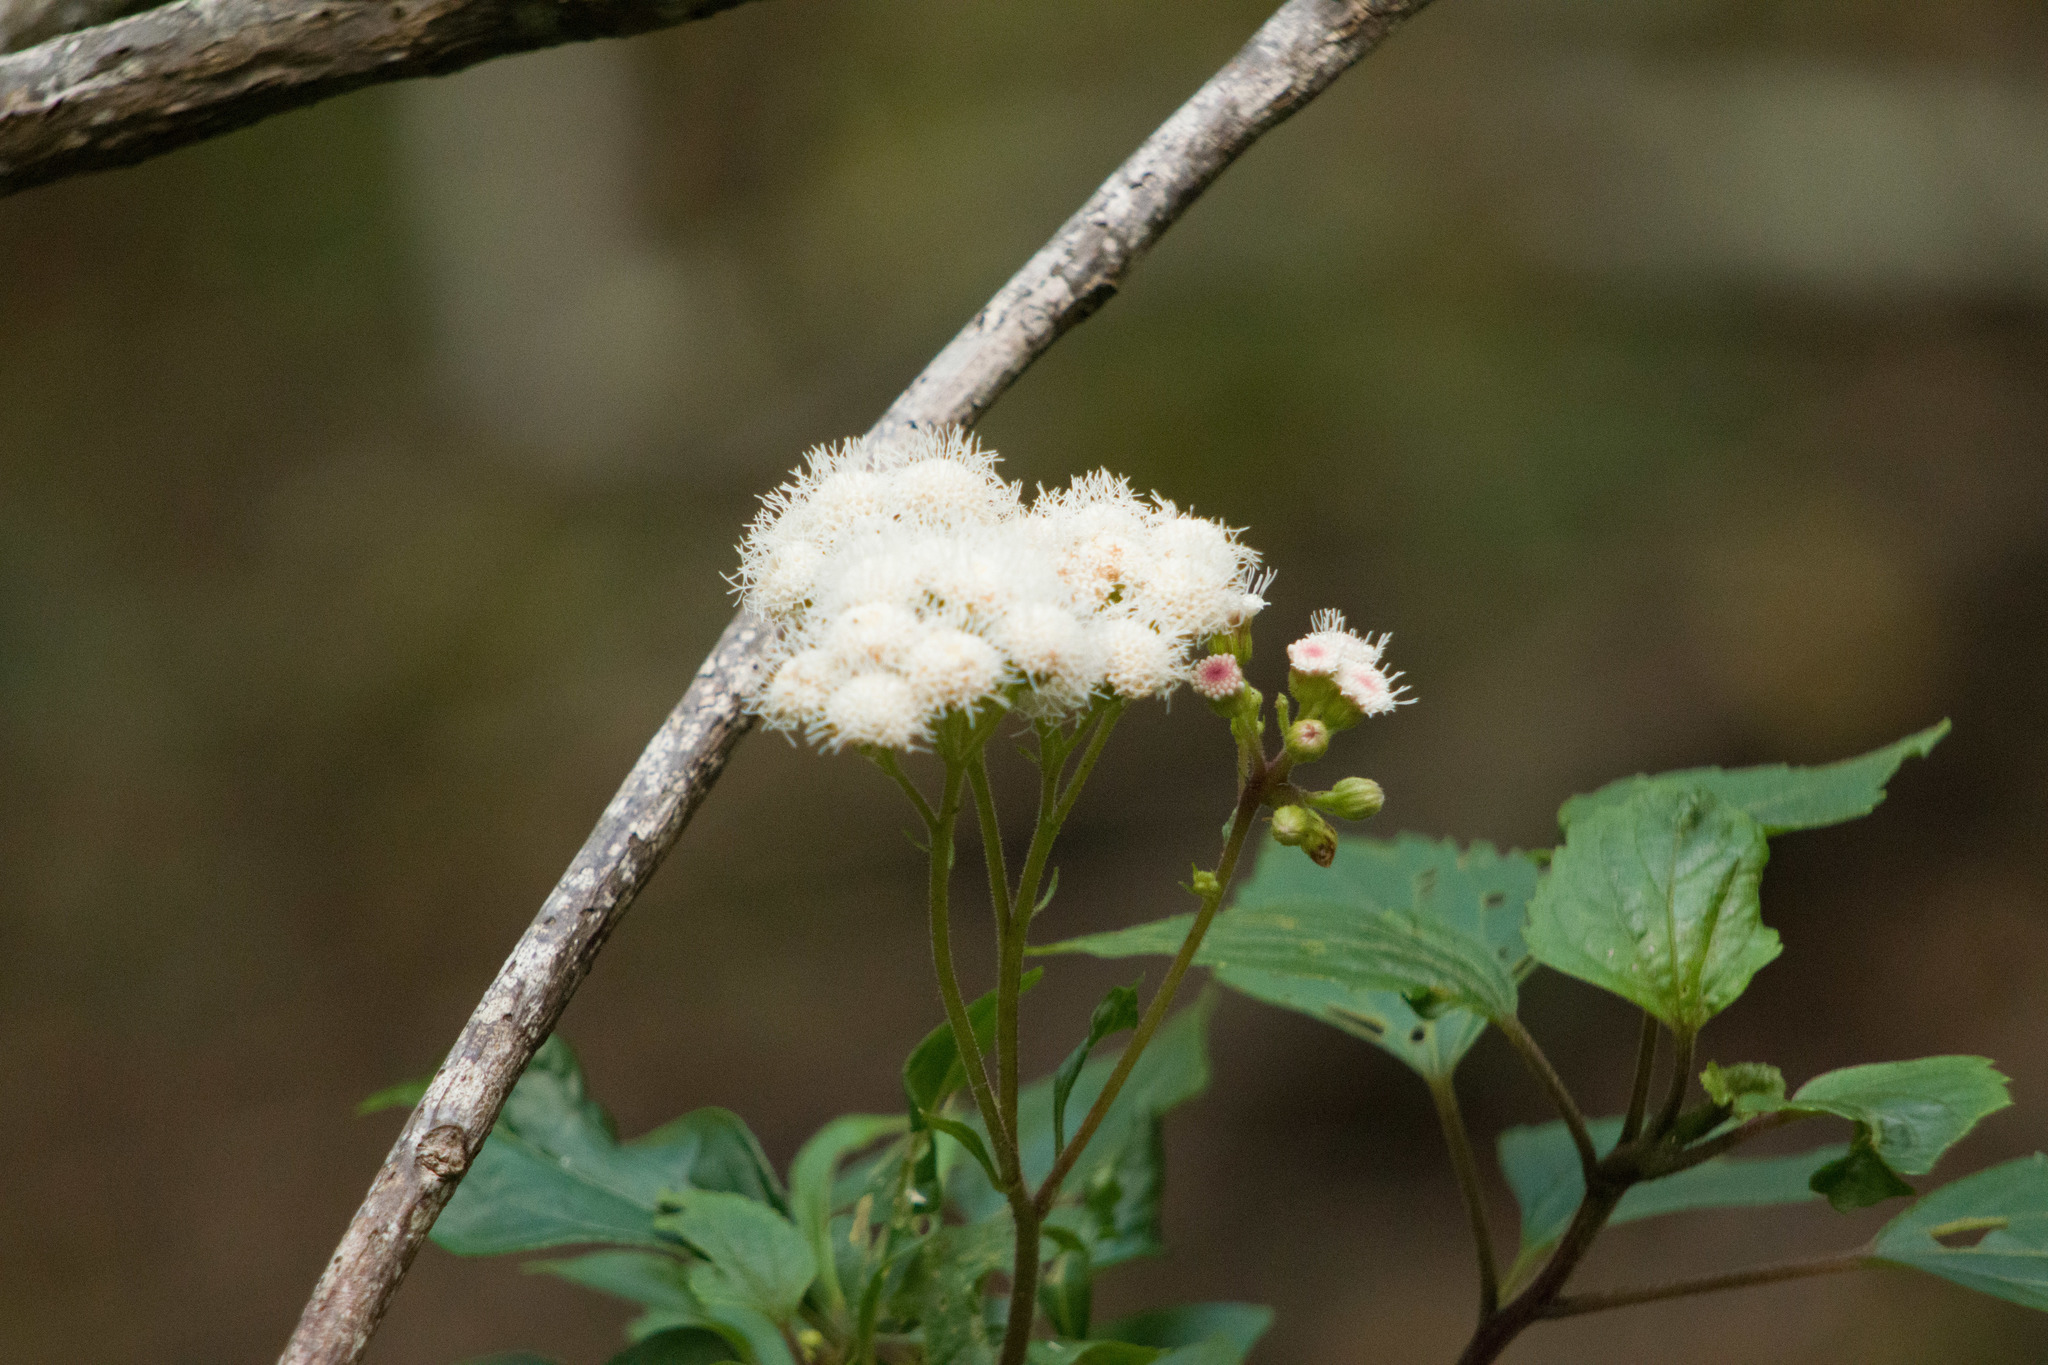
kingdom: Plantae
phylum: Tracheophyta
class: Magnoliopsida
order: Asterales
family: Asteraceae
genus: Ageratina
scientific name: Ageratina adenophora
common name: Sticky snakeroot
